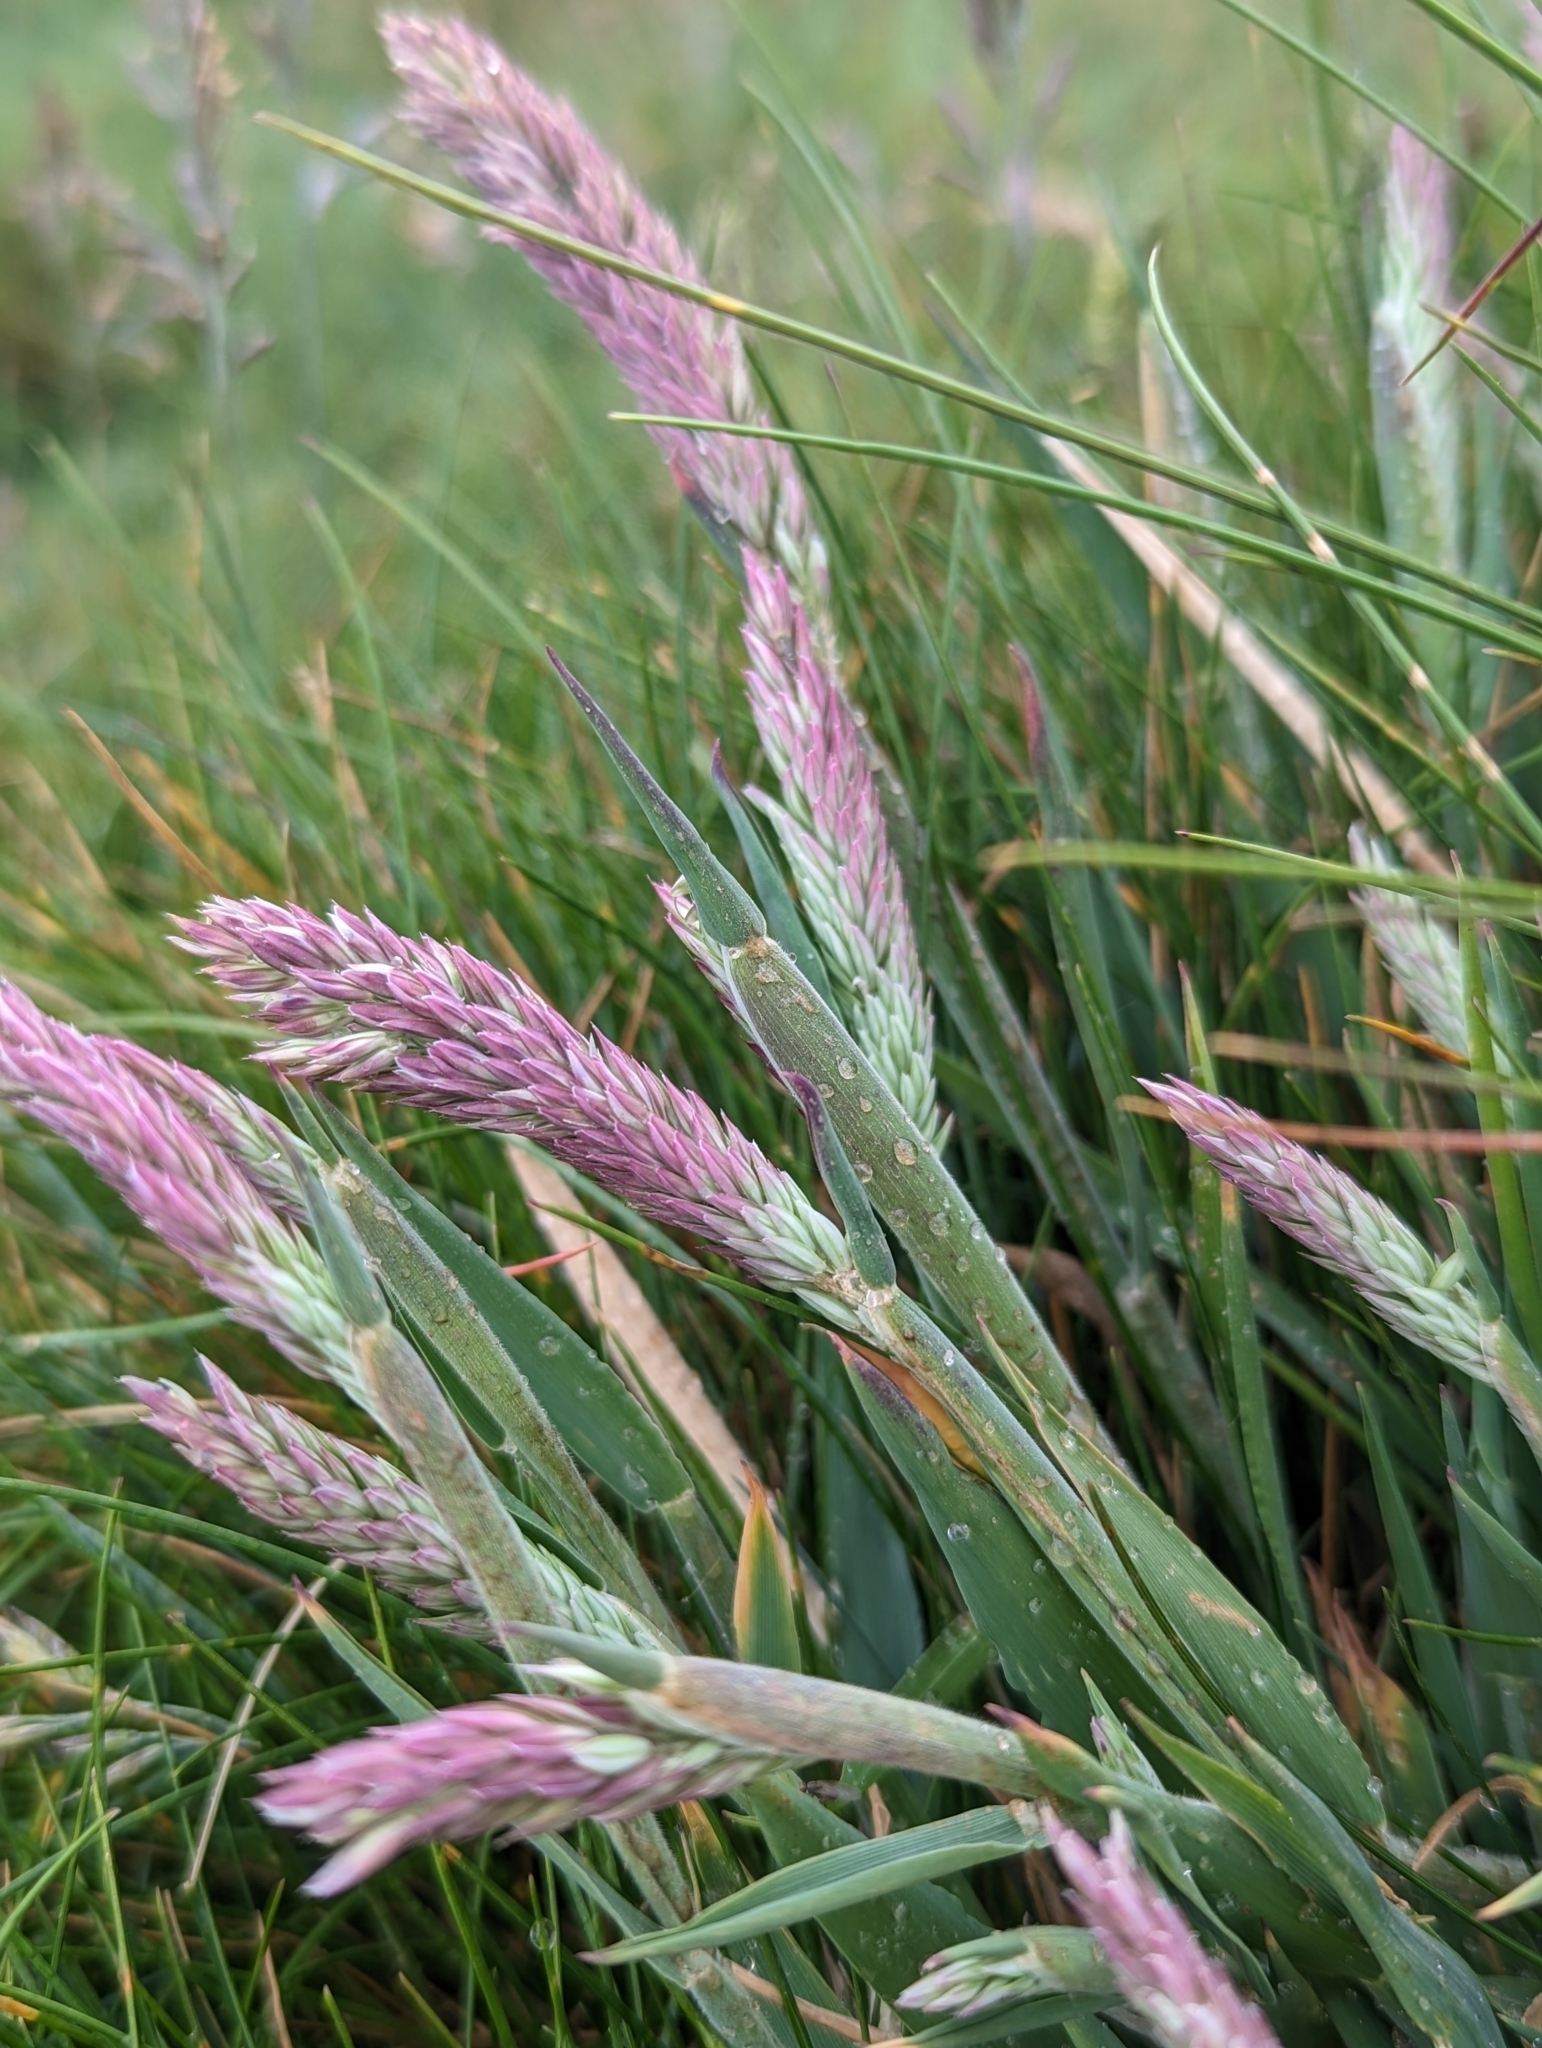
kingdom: Plantae
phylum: Tracheophyta
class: Liliopsida
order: Poales
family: Poaceae
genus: Holcus
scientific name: Holcus lanatus
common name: Yorkshire-fog
